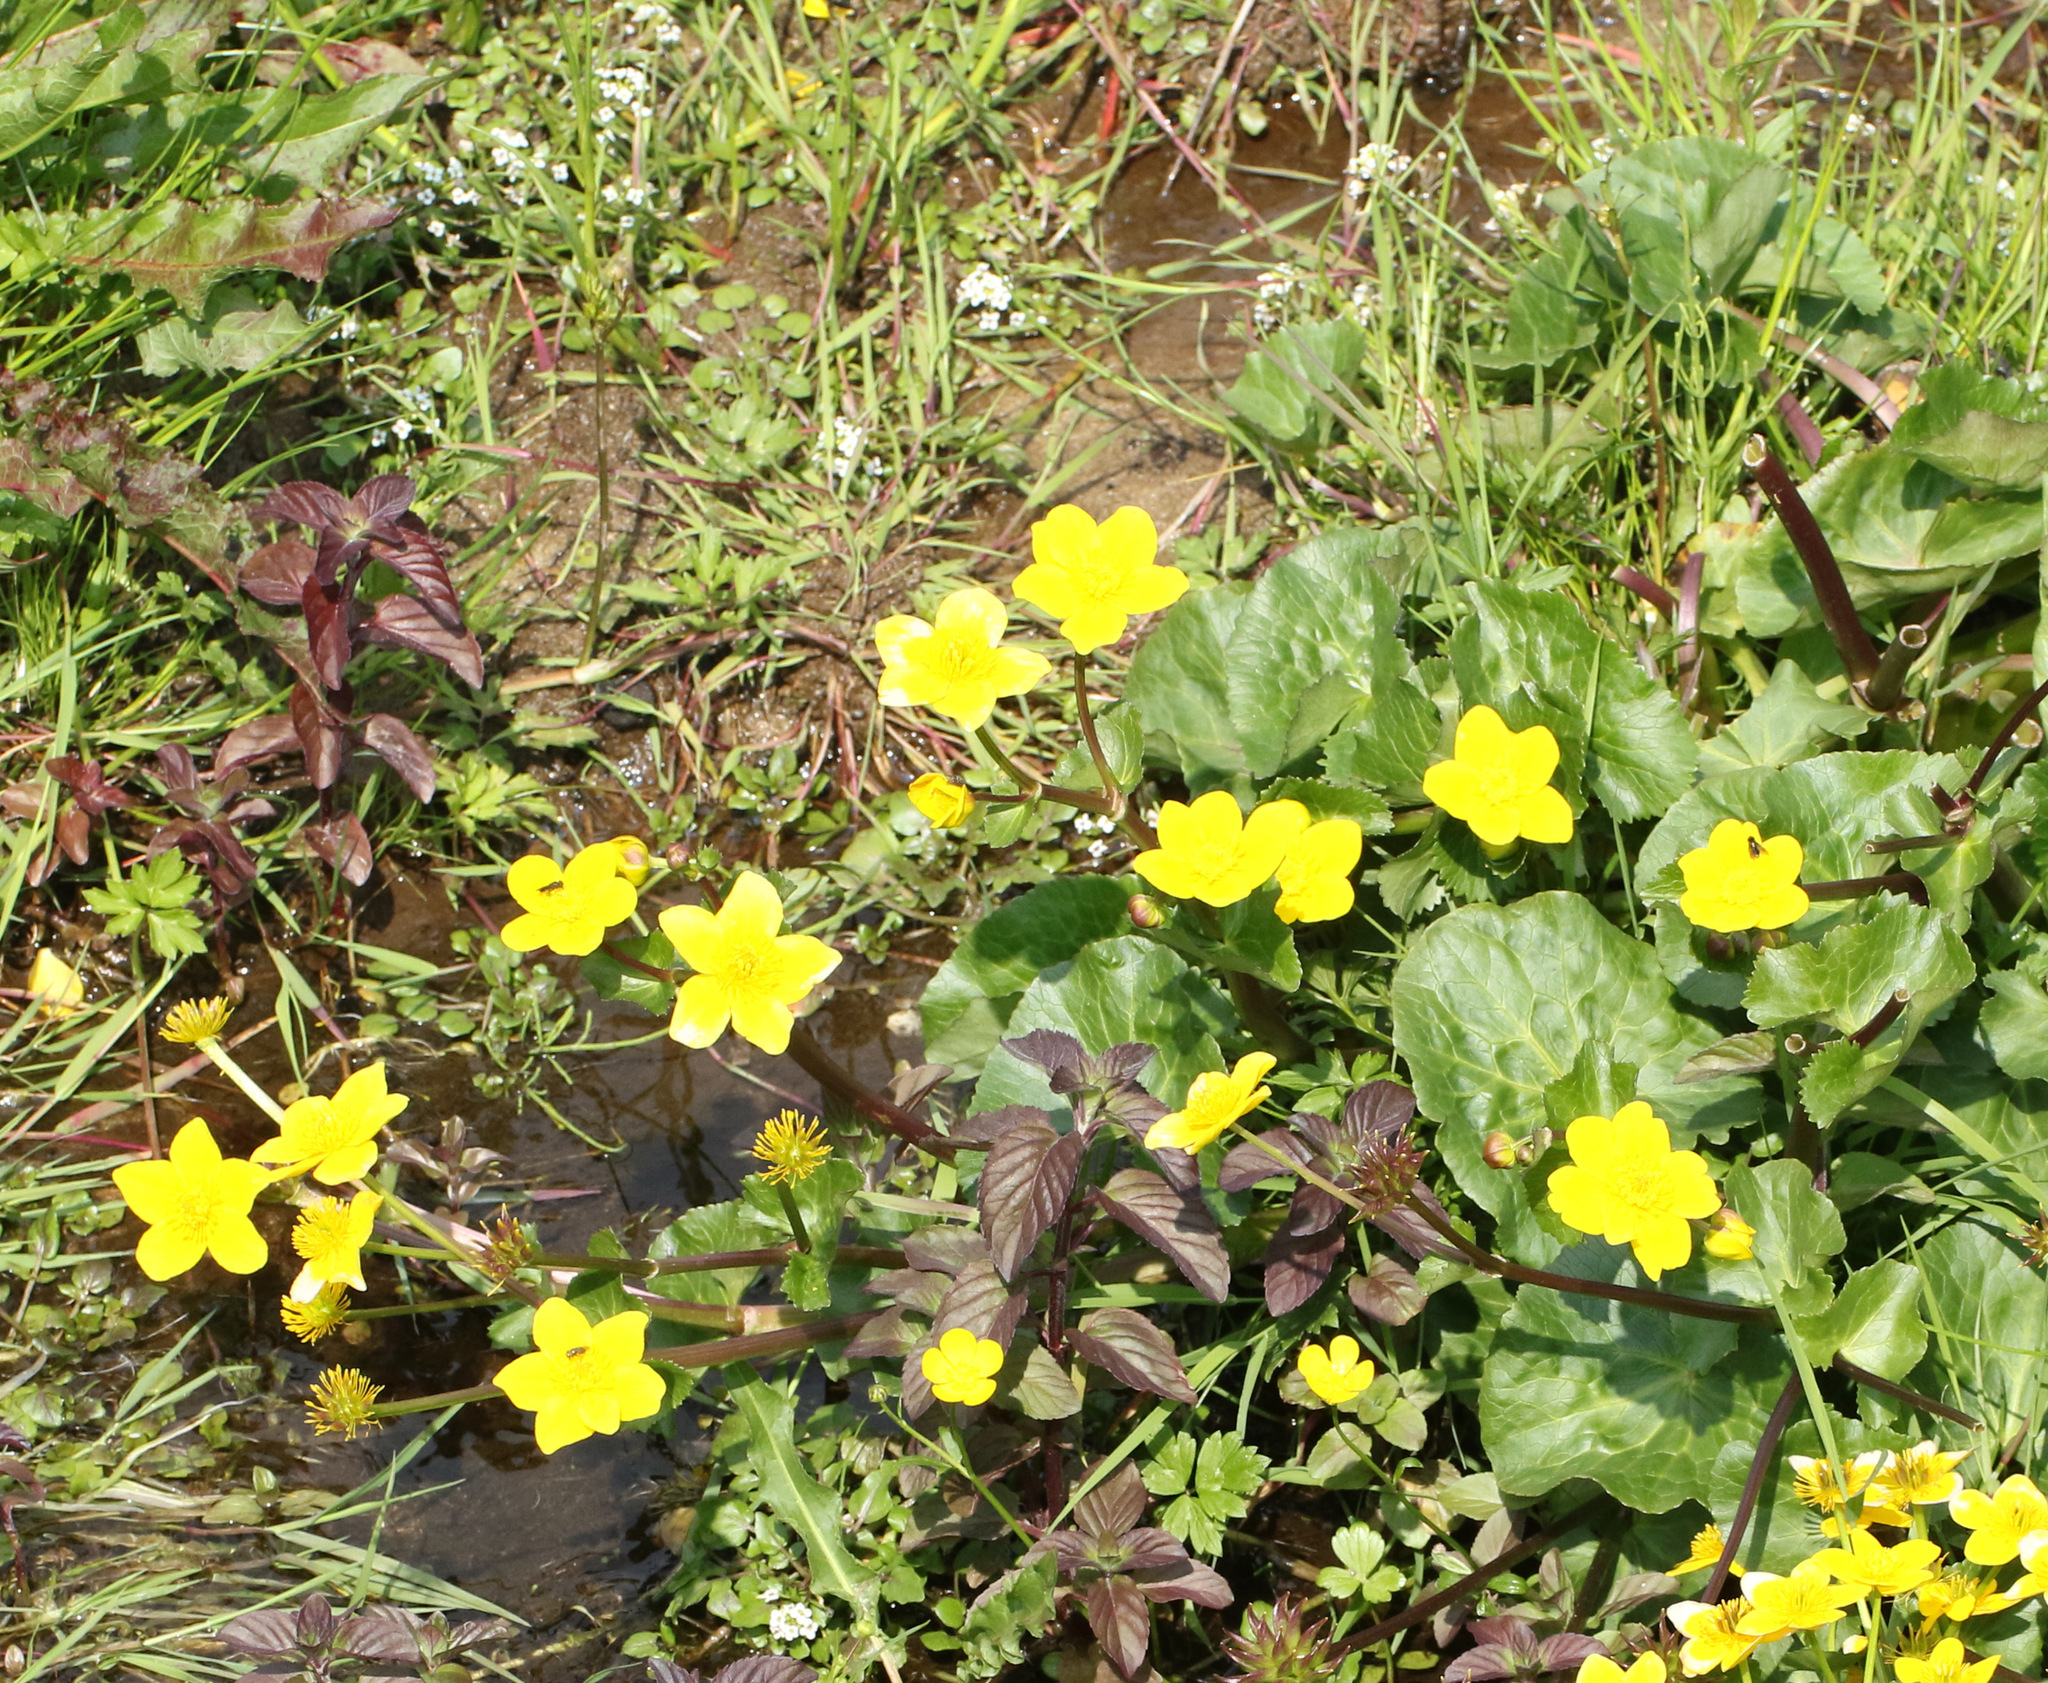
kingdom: Plantae
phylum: Tracheophyta
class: Magnoliopsida
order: Ranunculales
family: Ranunculaceae
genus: Caltha
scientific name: Caltha palustris
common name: Marsh marigold
